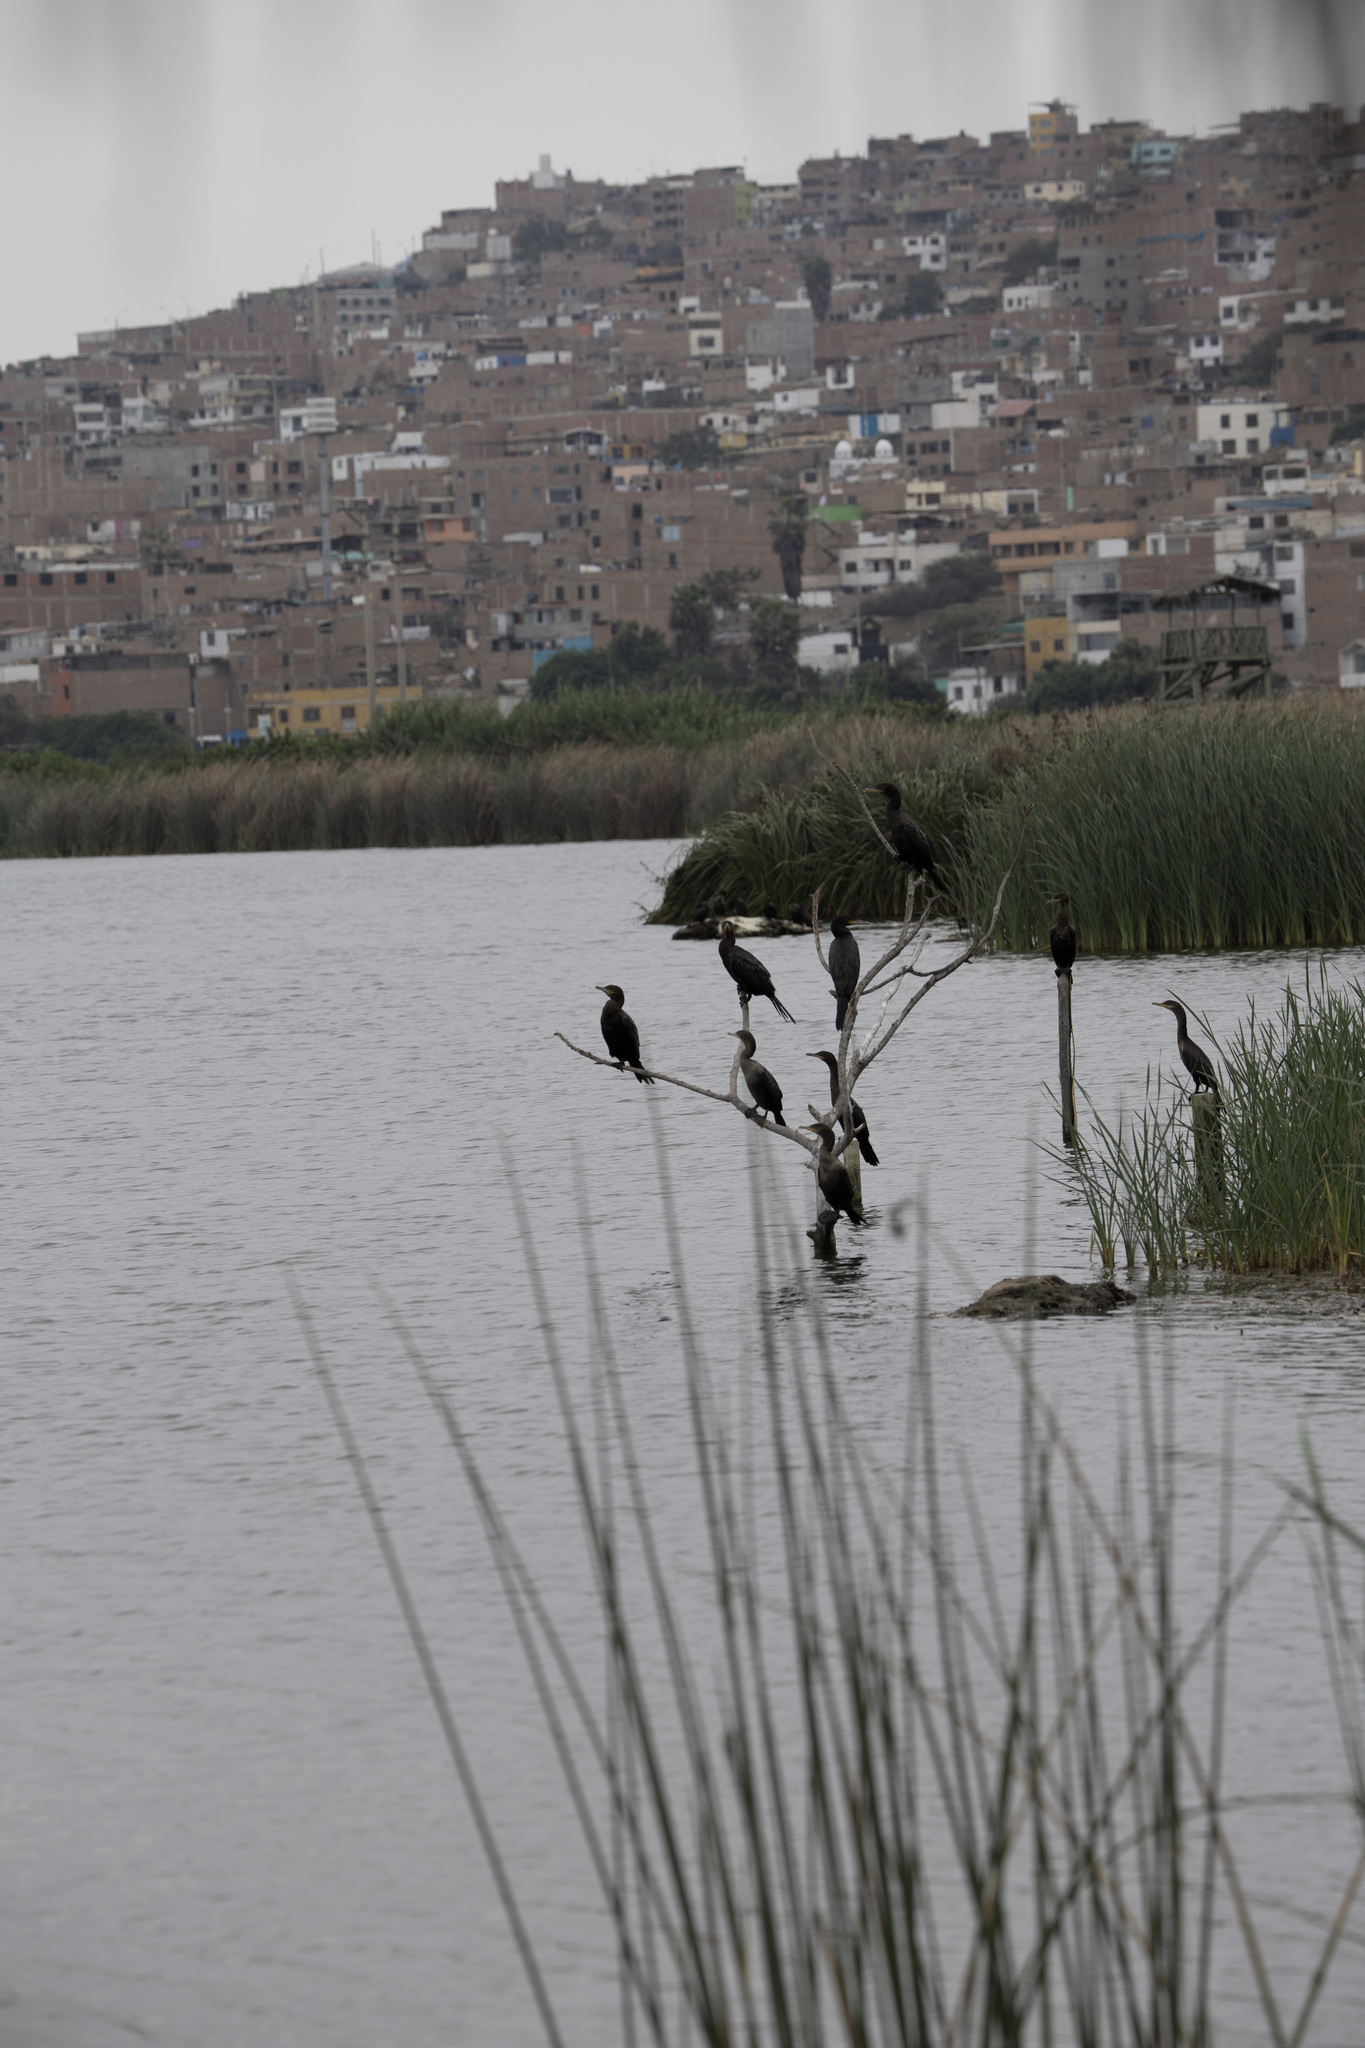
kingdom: Animalia
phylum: Chordata
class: Aves
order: Suliformes
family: Phalacrocoracidae
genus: Phalacrocorax
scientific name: Phalacrocorax brasilianus
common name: Neotropic cormorant
